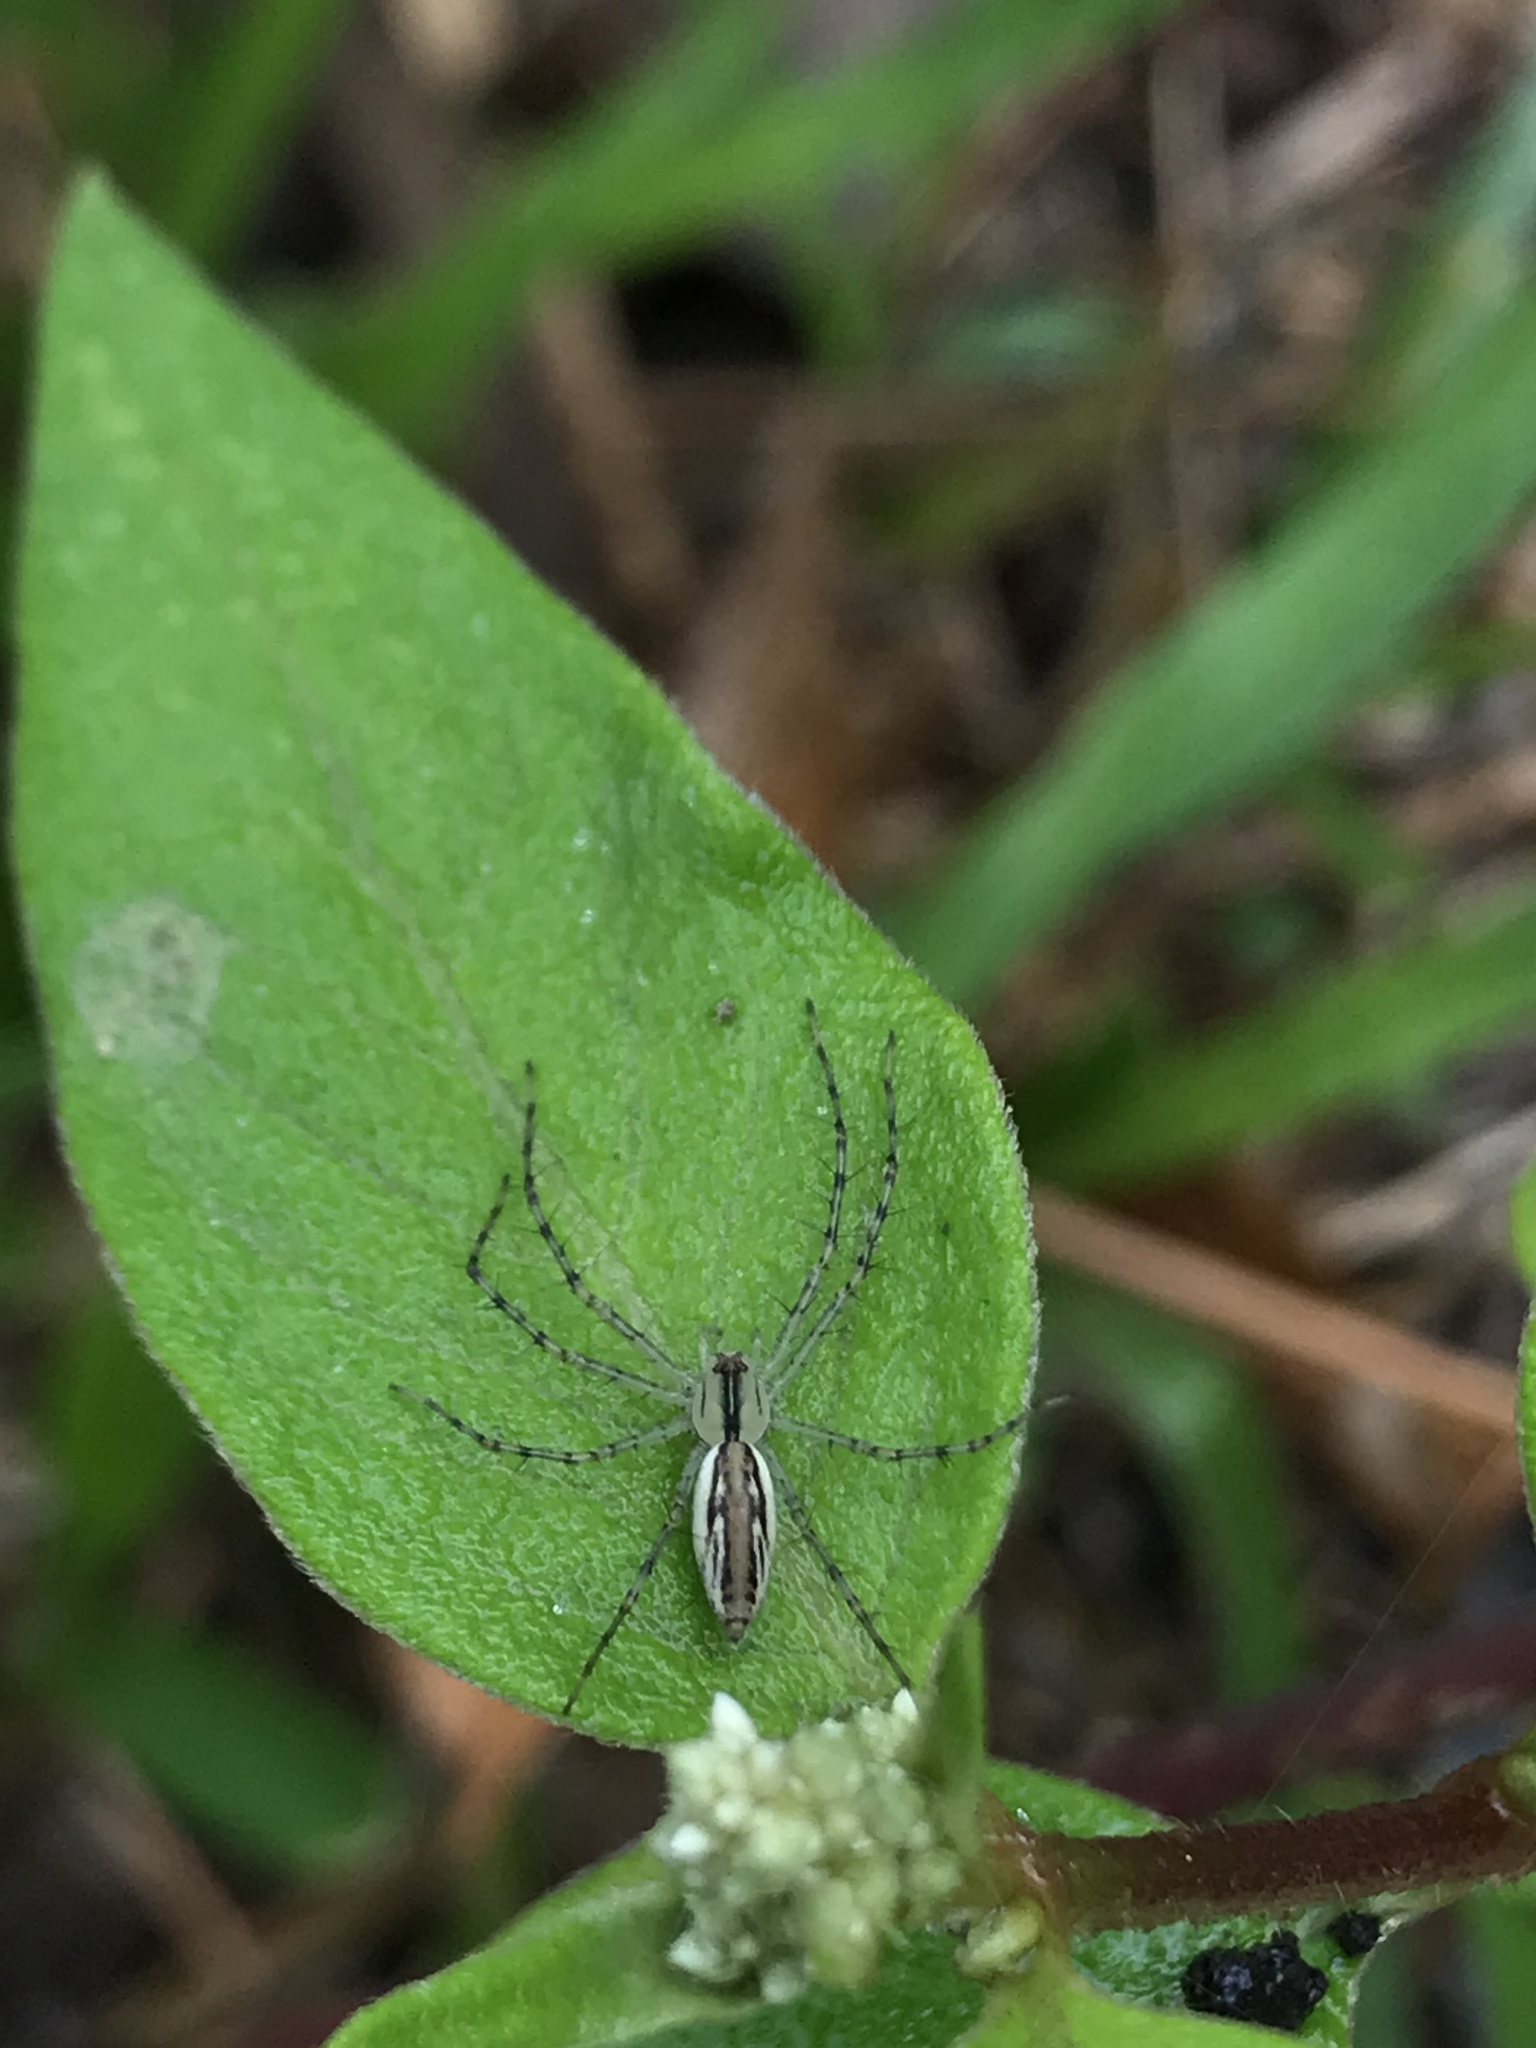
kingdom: Animalia
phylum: Arthropoda
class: Arachnida
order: Araneae
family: Oxyopidae
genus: Peucetia
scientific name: Peucetia rubrolineata
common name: Lynx spiders
